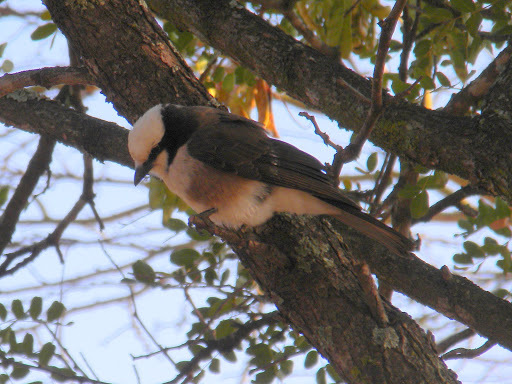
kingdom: Animalia
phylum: Chordata
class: Aves
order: Passeriformes
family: Laniidae
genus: Eurocephalus
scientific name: Eurocephalus ruppelli
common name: Northern white-crowned shrike
